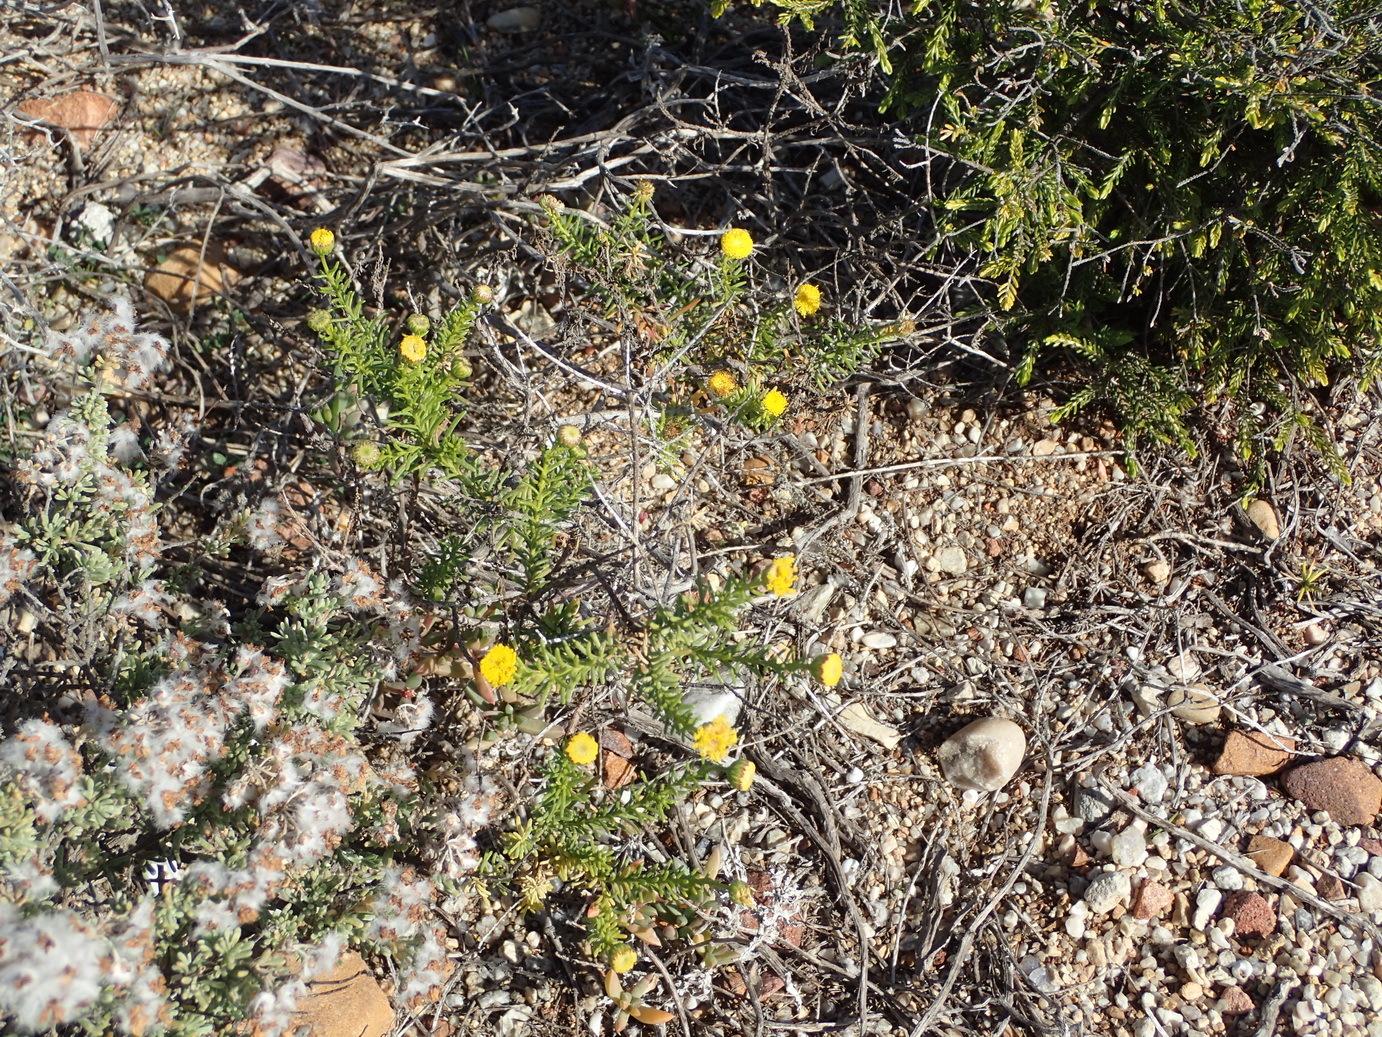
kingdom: Plantae
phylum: Tracheophyta
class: Magnoliopsida
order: Asterales
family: Asteraceae
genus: Chrysocoma
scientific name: Chrysocoma ciliata
